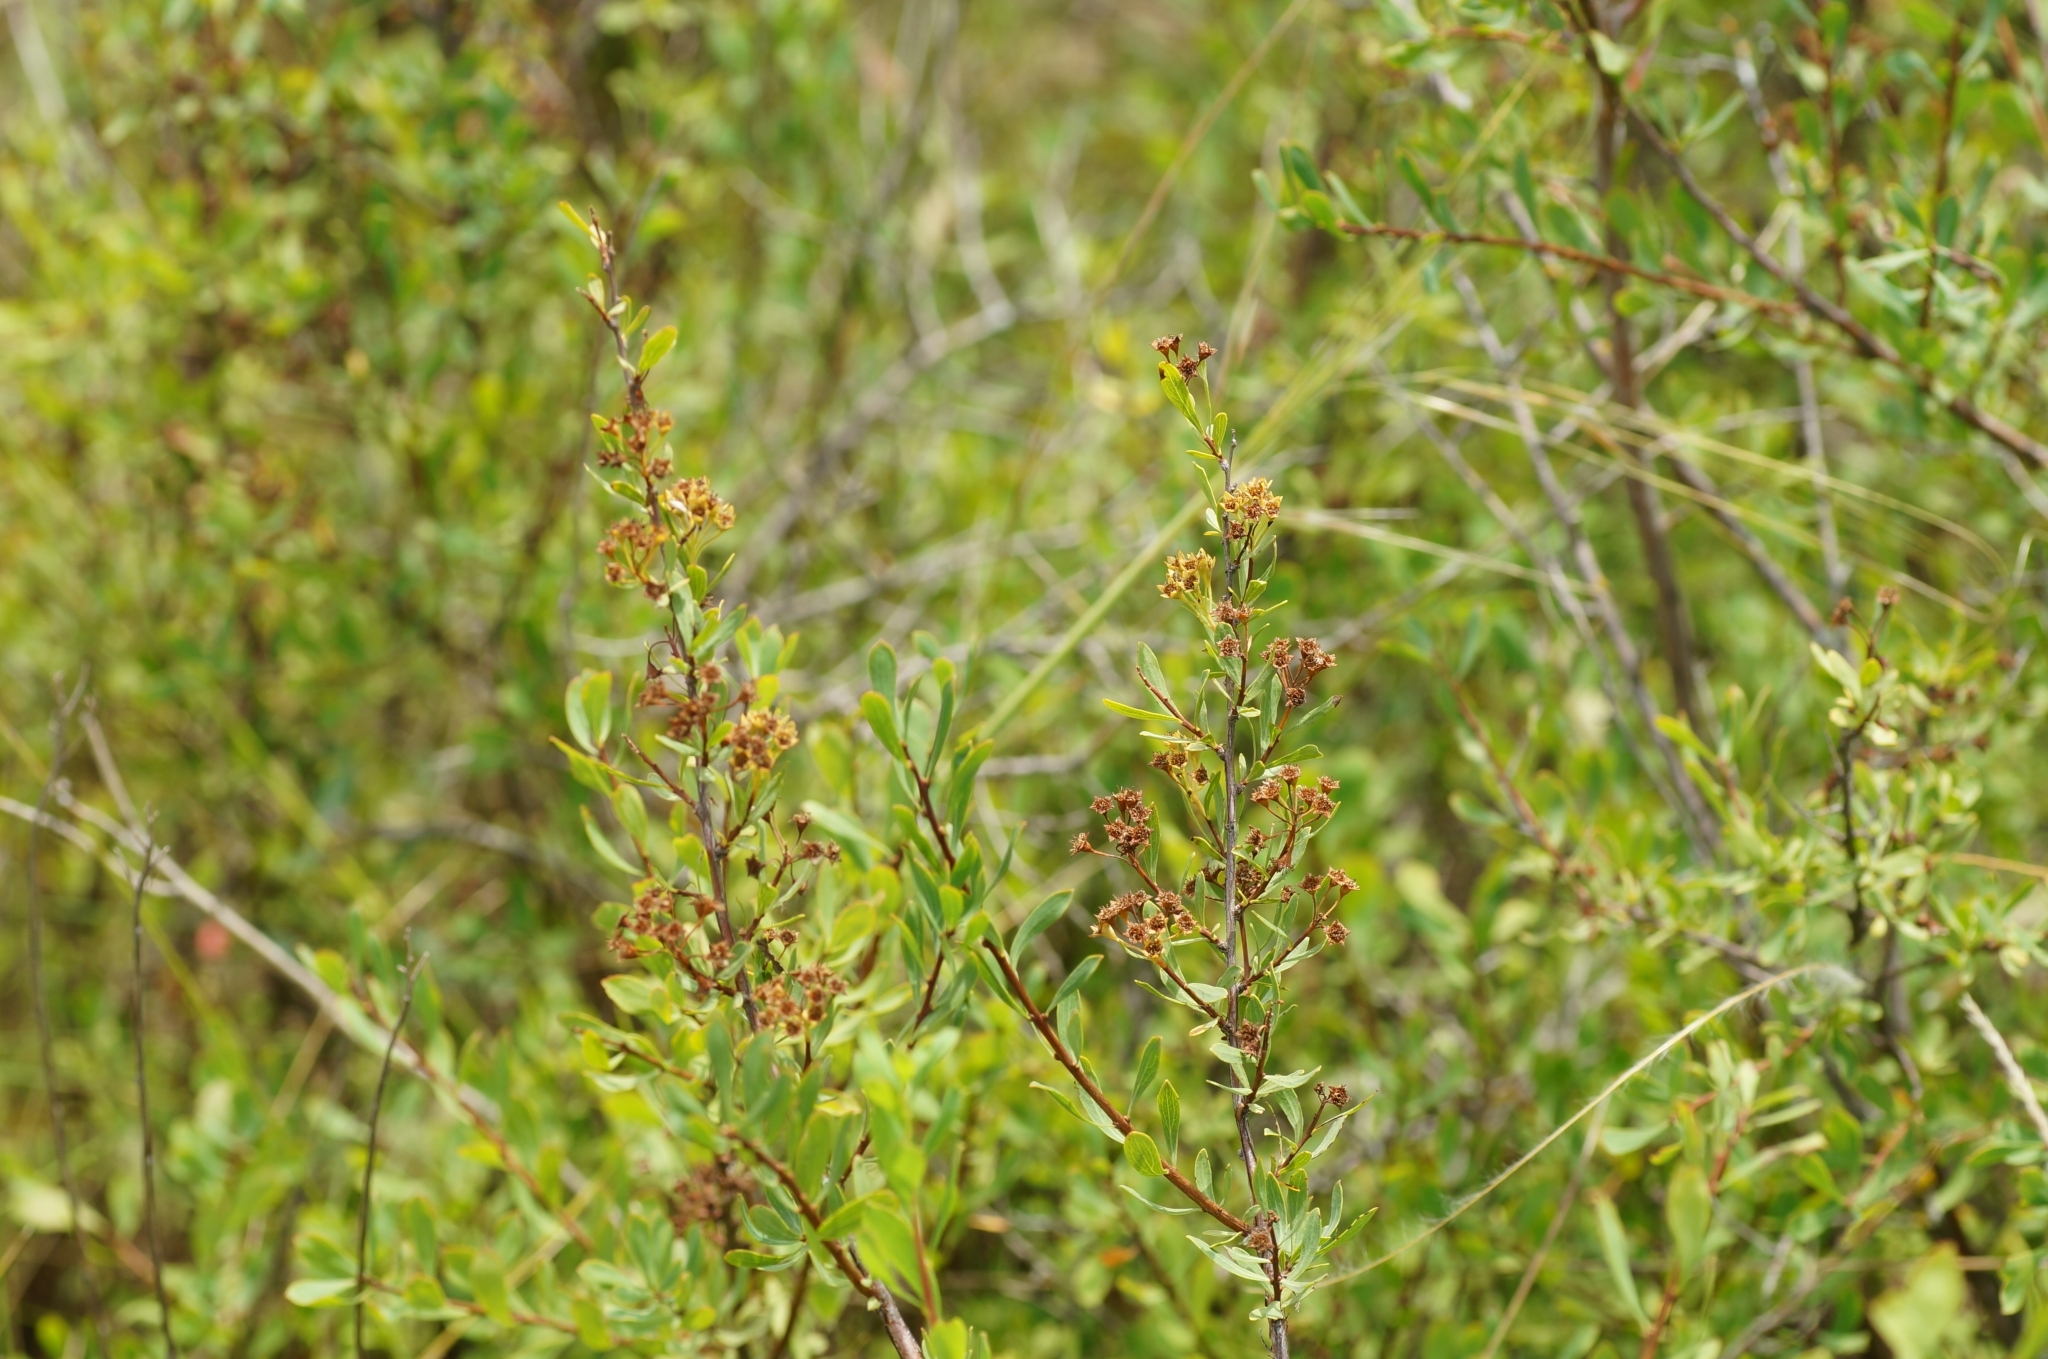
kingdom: Plantae
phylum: Tracheophyta
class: Magnoliopsida
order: Rosales
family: Rosaceae
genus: Spiraea
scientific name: Spiraea crenata
